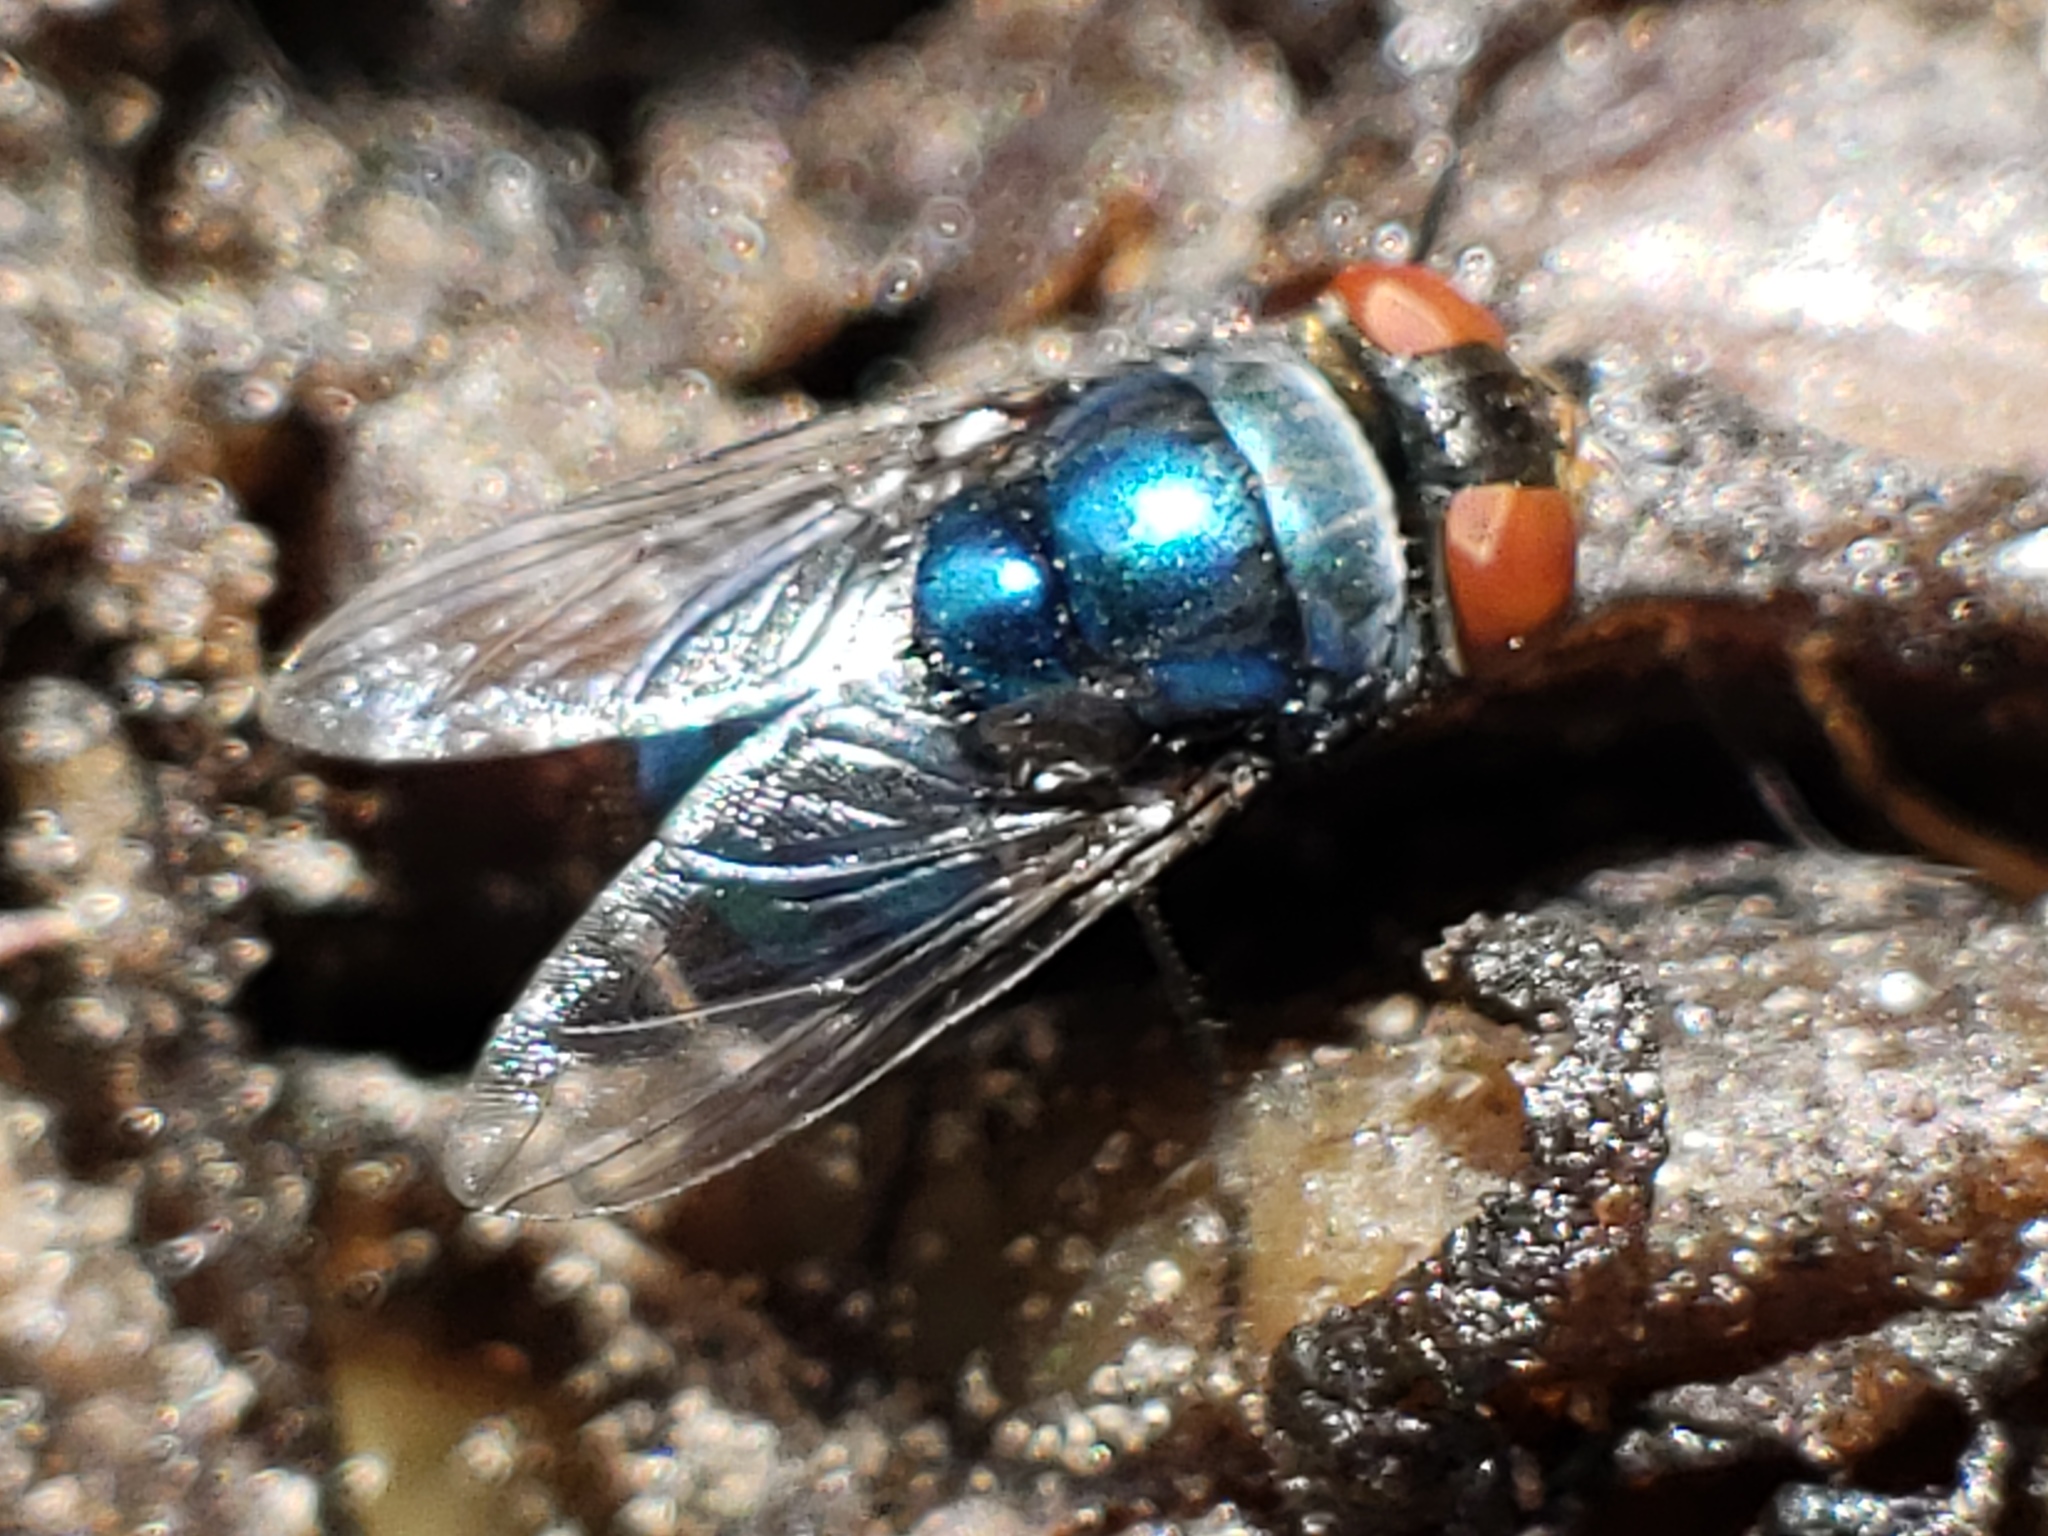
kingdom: Animalia
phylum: Arthropoda
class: Insecta
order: Diptera
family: Calliphoridae
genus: Chrysomya
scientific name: Chrysomya megacephala
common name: Blow fly
